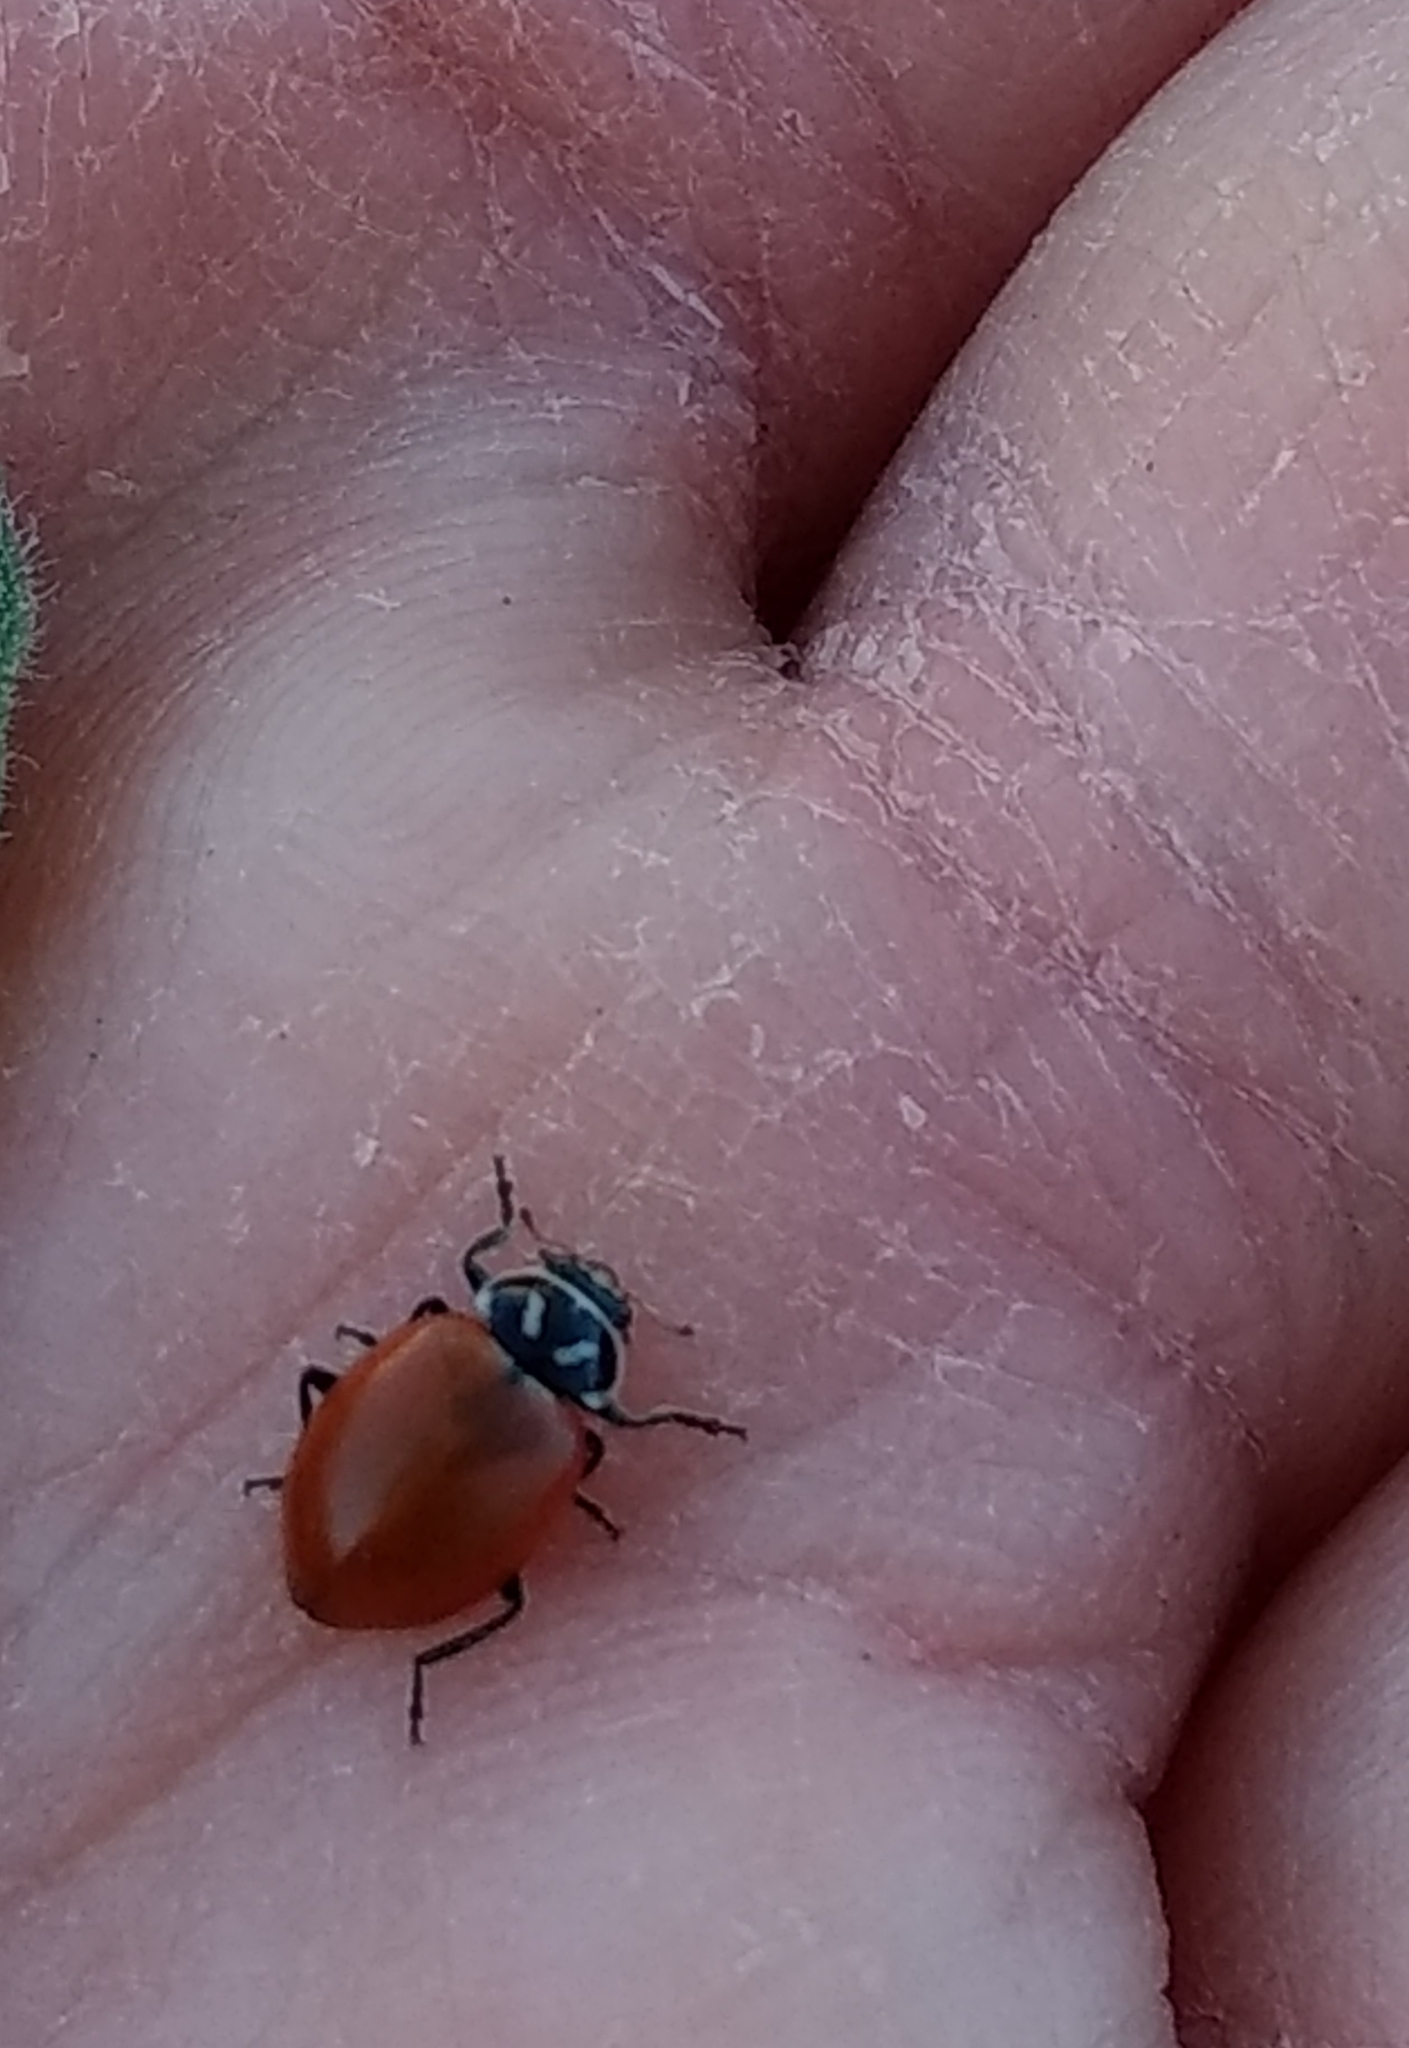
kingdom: Animalia
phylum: Arthropoda
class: Insecta
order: Coleoptera
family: Coccinellidae
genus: Hippodamia
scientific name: Hippodamia convergens
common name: Convergent lady beetle
